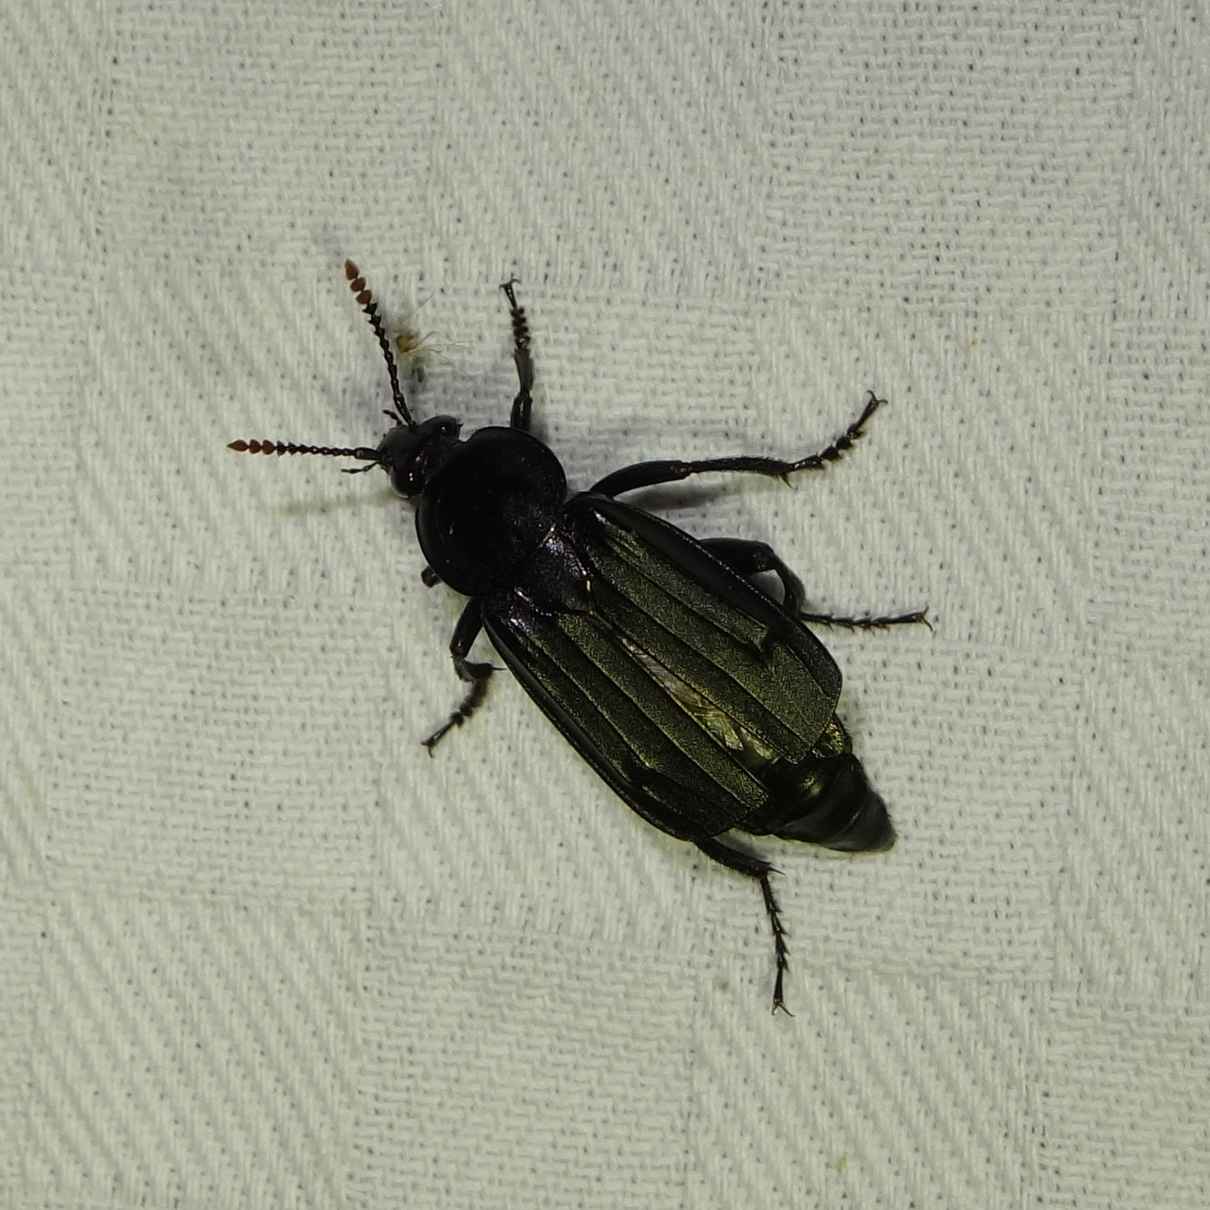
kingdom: Animalia
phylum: Arthropoda
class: Insecta
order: Coleoptera
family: Staphylinidae
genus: Necrodes
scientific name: Necrodes littoralis
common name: Shore sexton beetle
